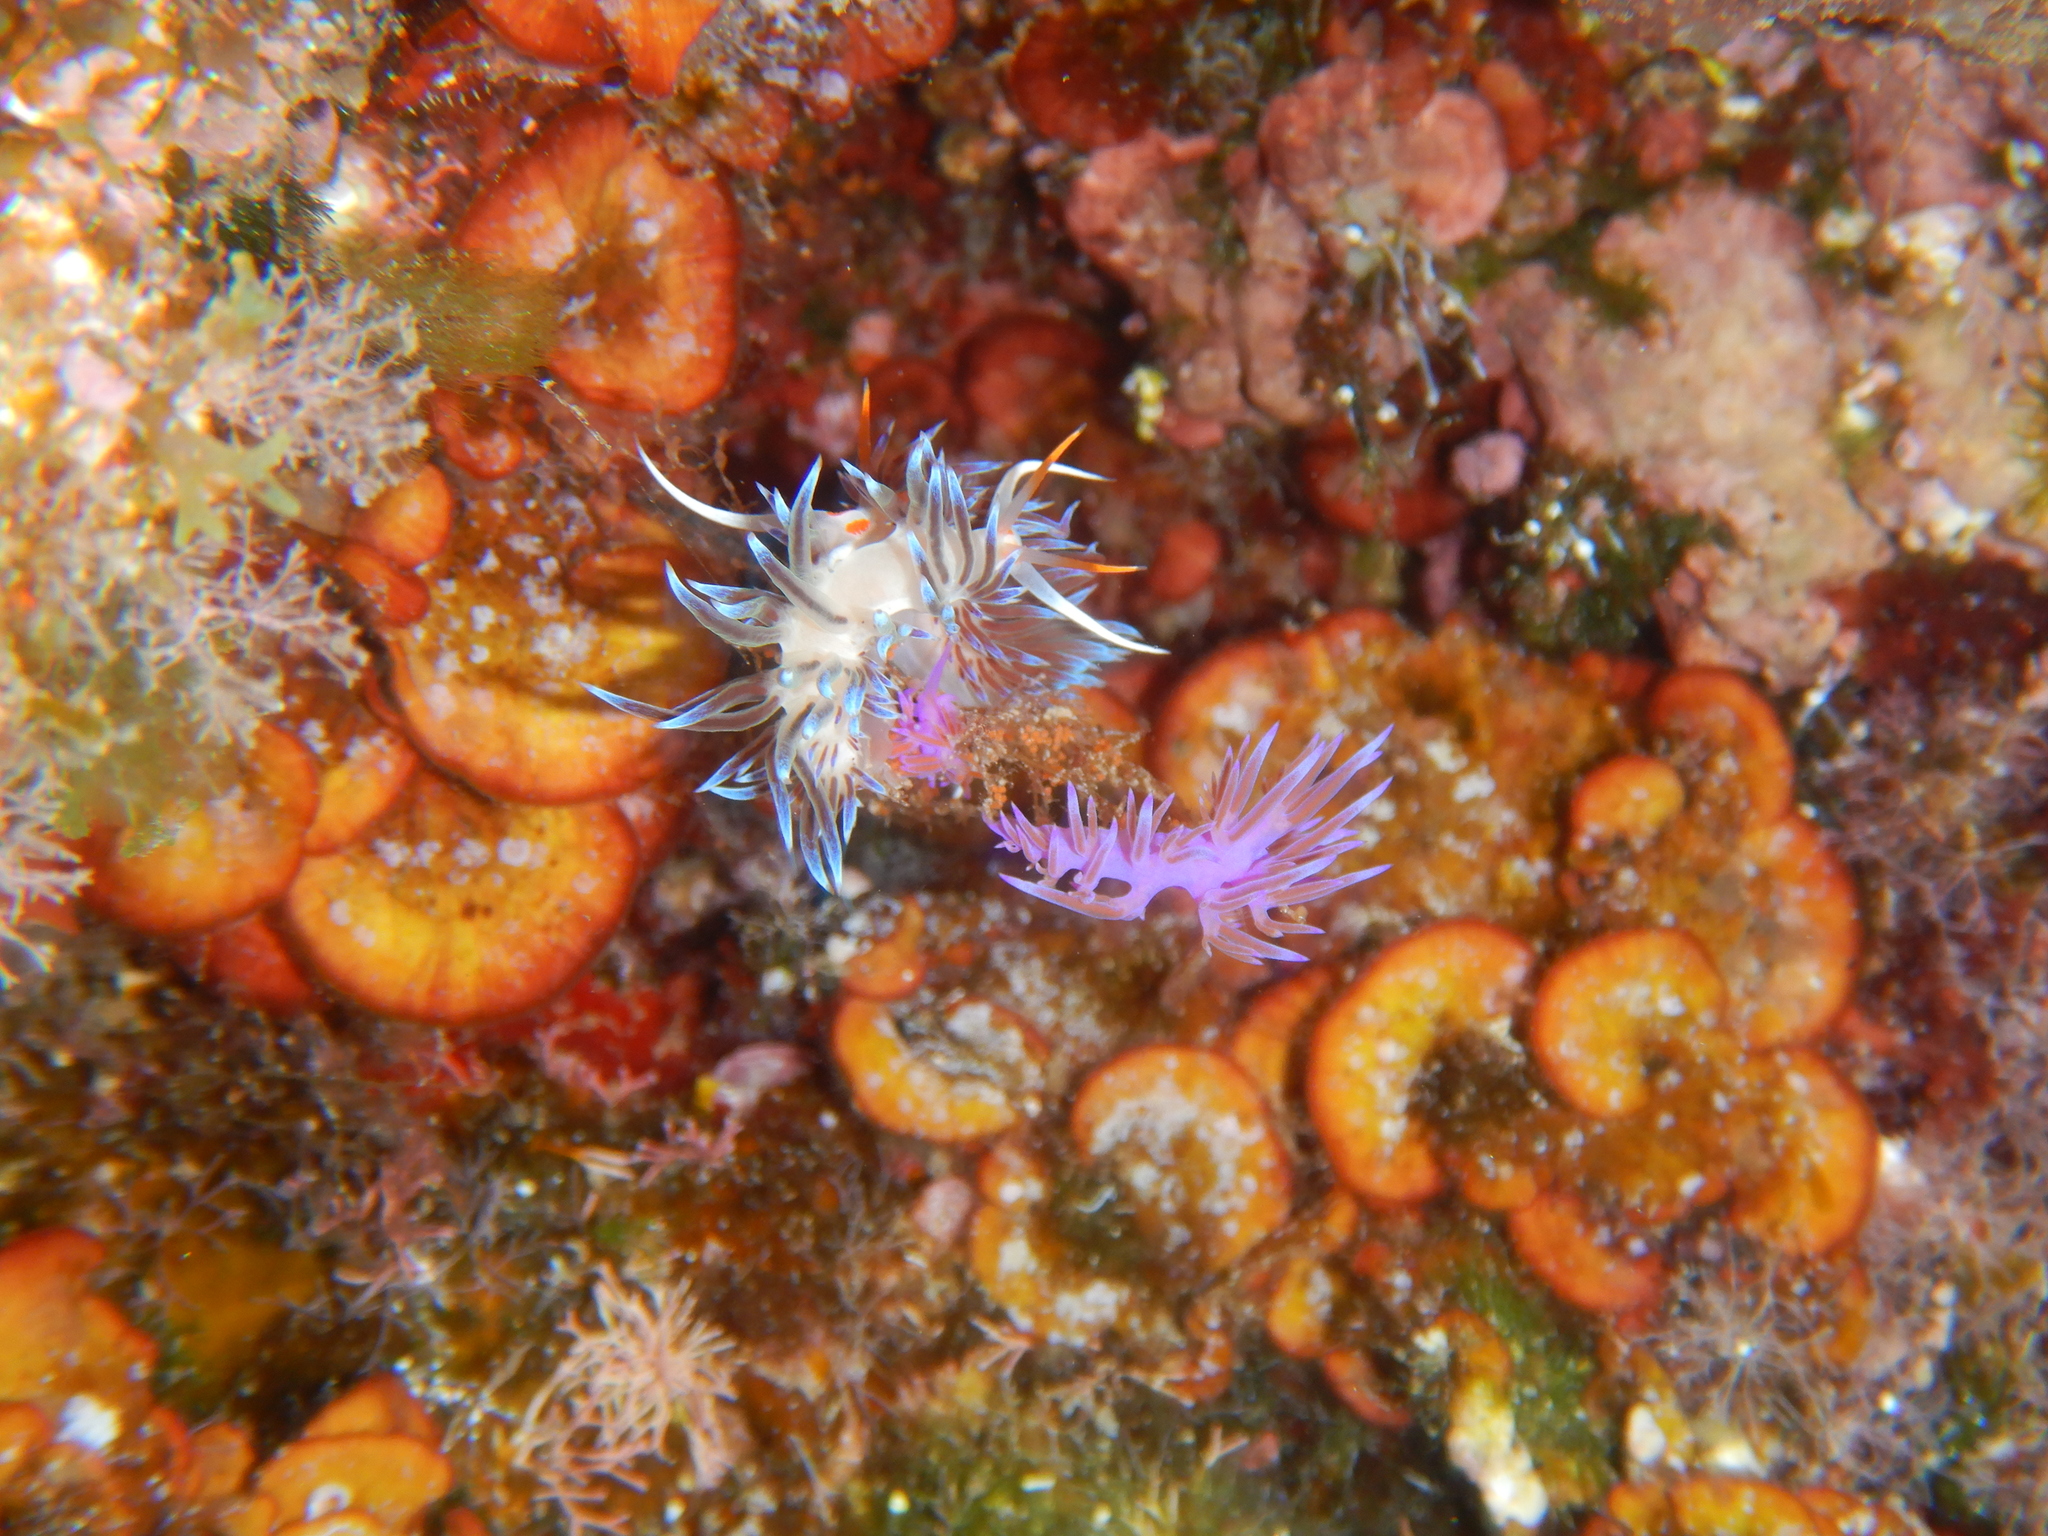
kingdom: Animalia
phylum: Mollusca
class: Gastropoda
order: Nudibranchia
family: Facelinidae
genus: Cratena
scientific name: Cratena peregrina
